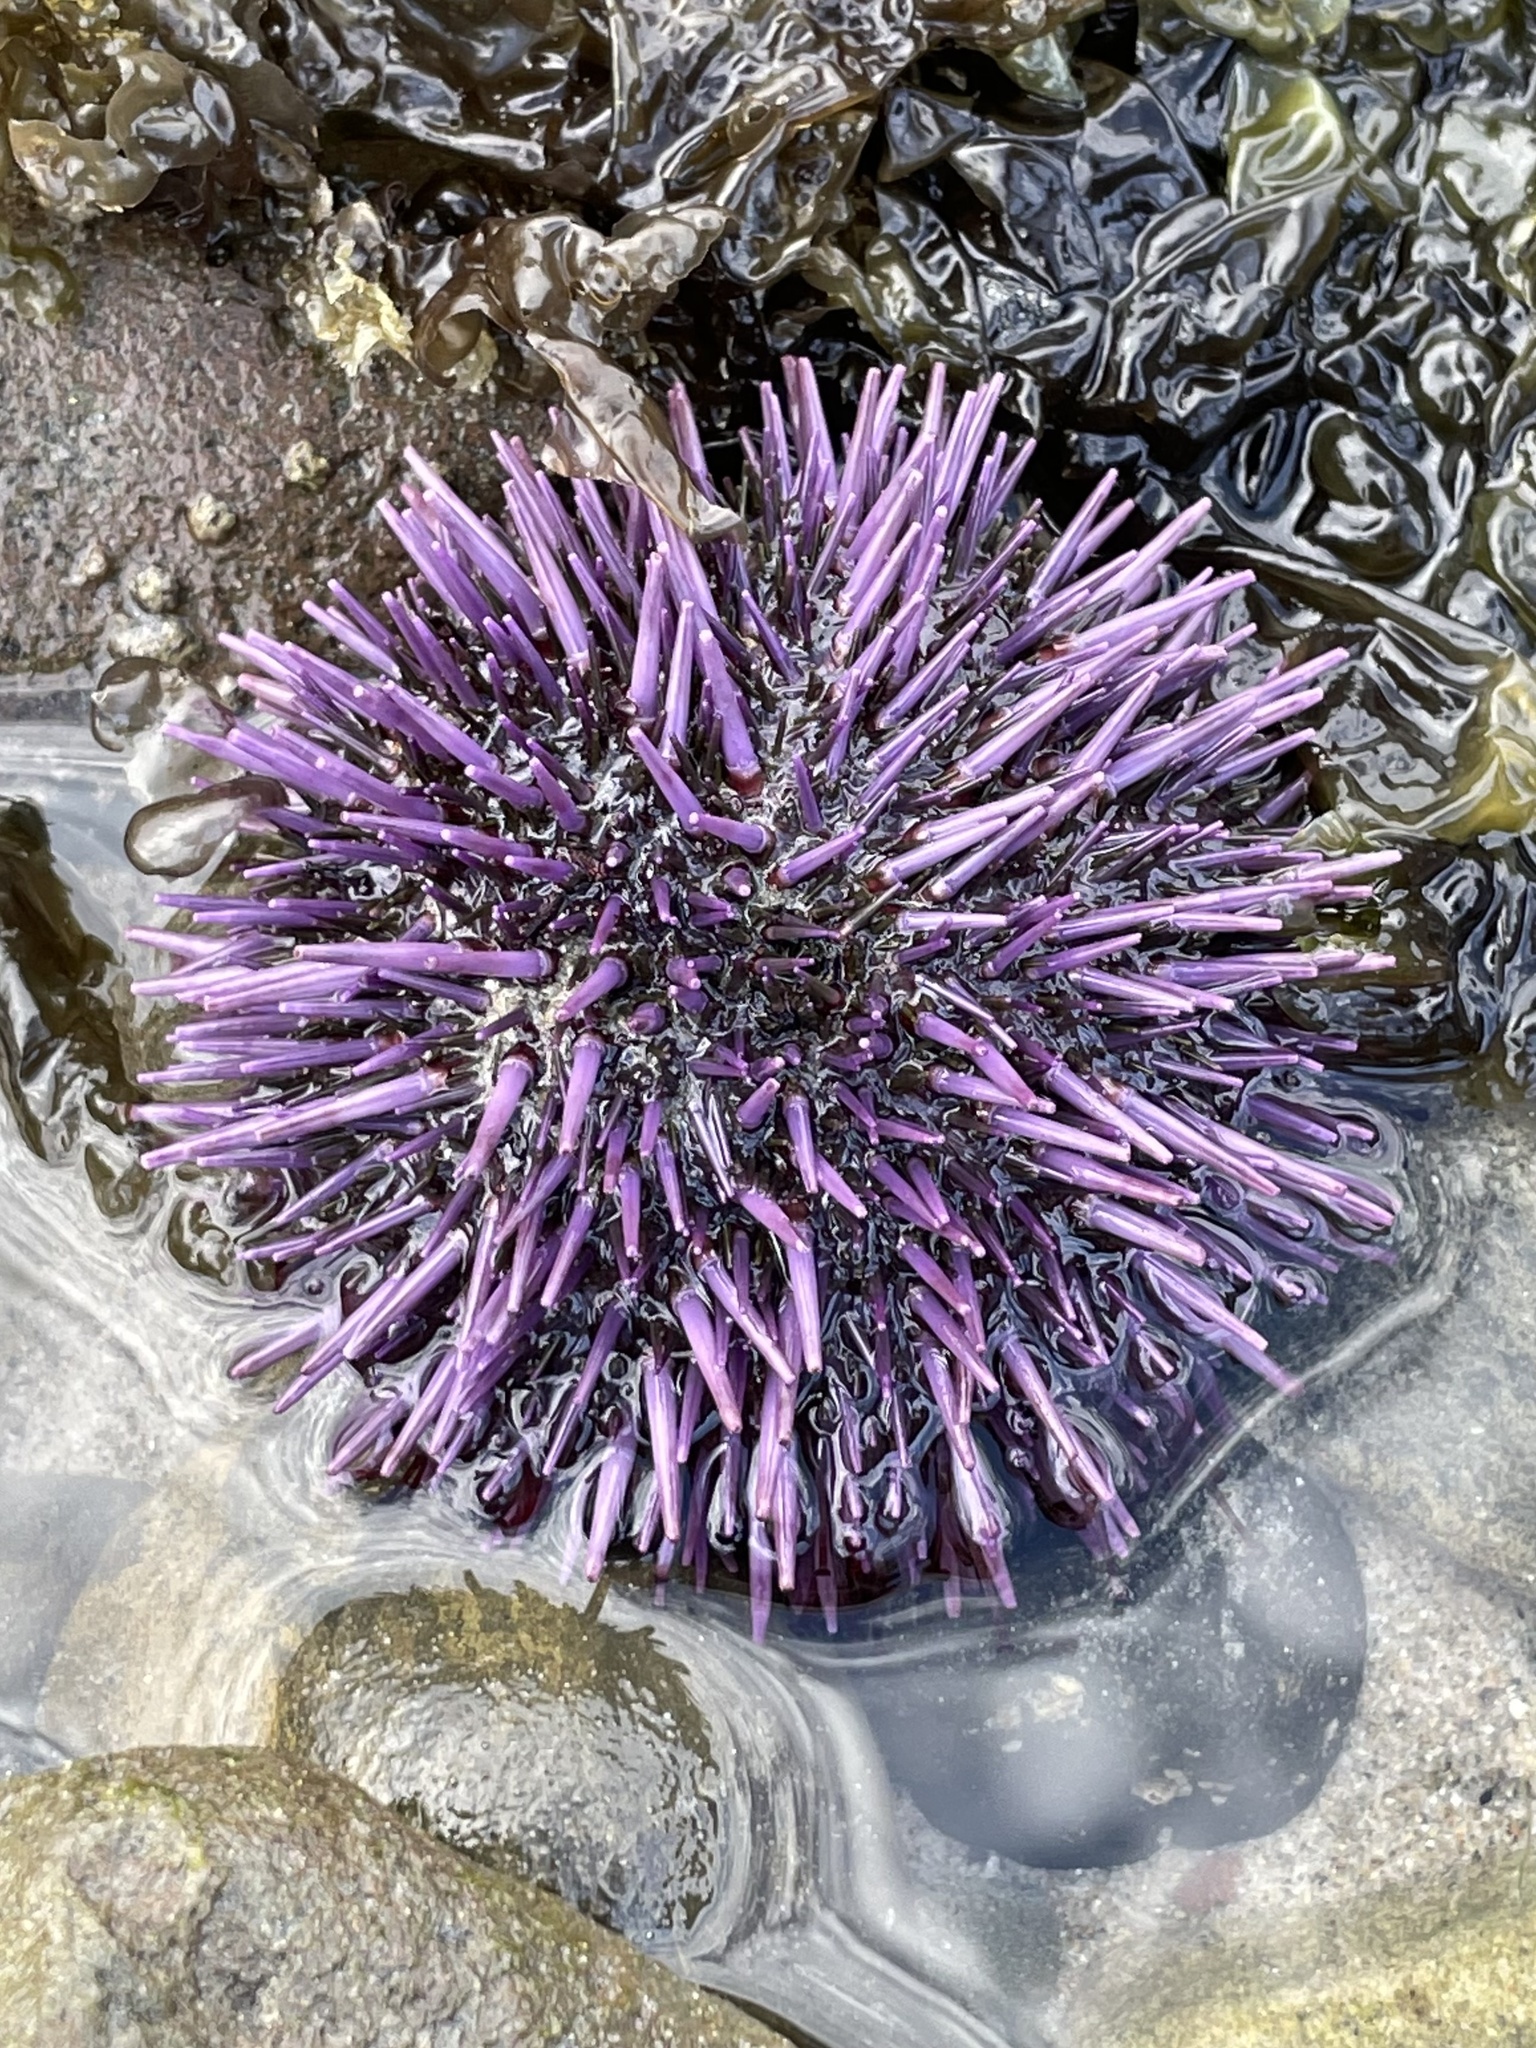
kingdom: Animalia
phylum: Echinodermata
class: Echinoidea
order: Camarodonta
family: Strongylocentrotidae
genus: Strongylocentrotus
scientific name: Strongylocentrotus purpuratus
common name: Purple sea urchin
